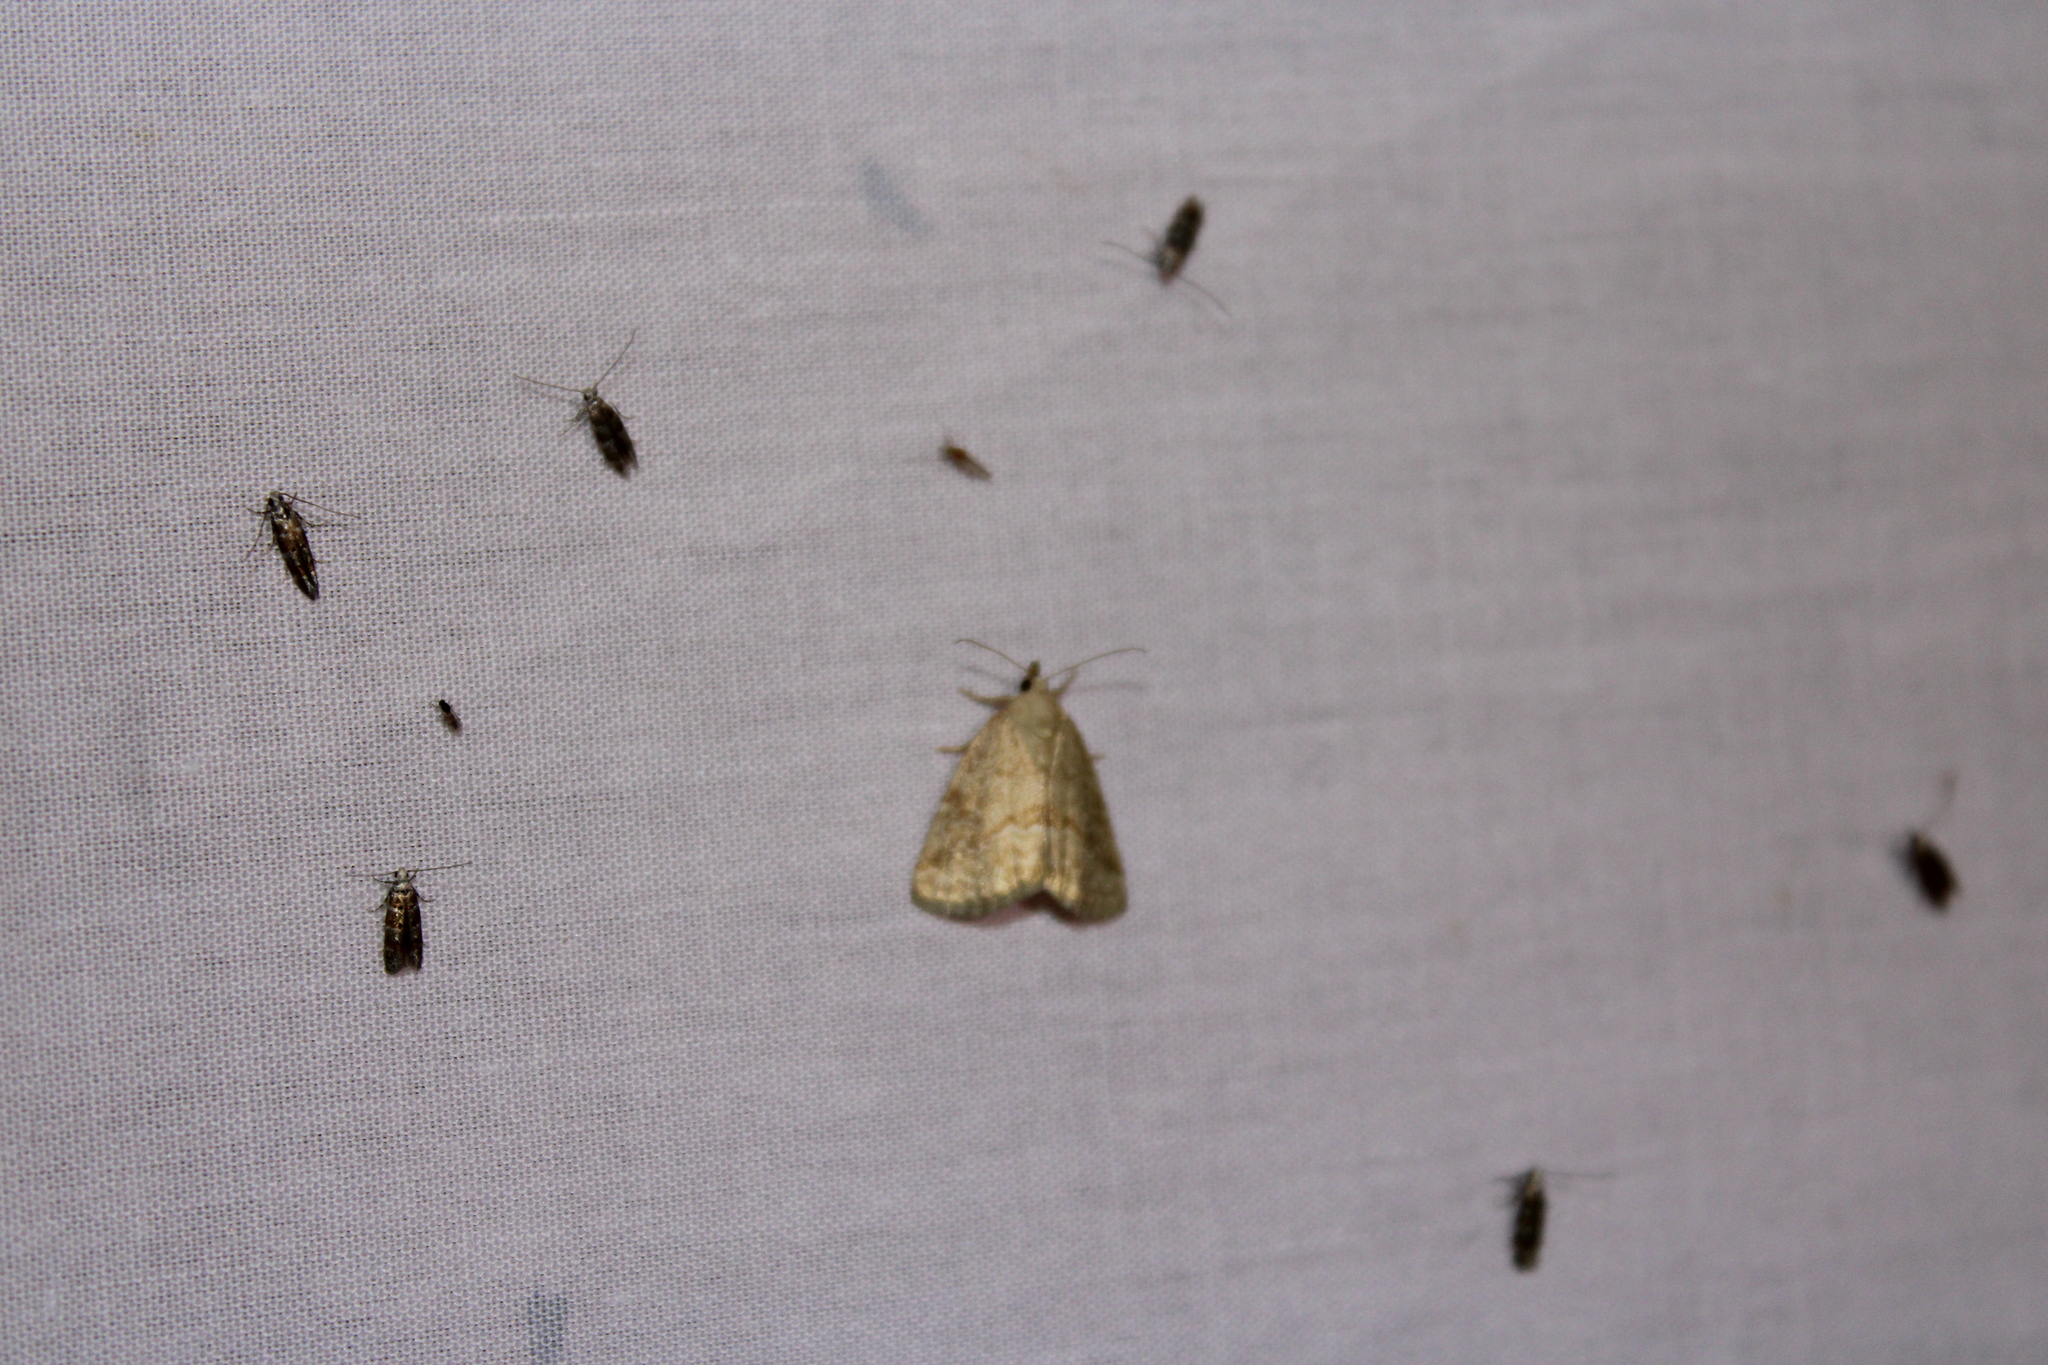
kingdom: Animalia
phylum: Arthropoda
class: Insecta
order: Lepidoptera
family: Noctuidae
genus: Protodeltote
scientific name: Protodeltote albidula
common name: Pale glyph
